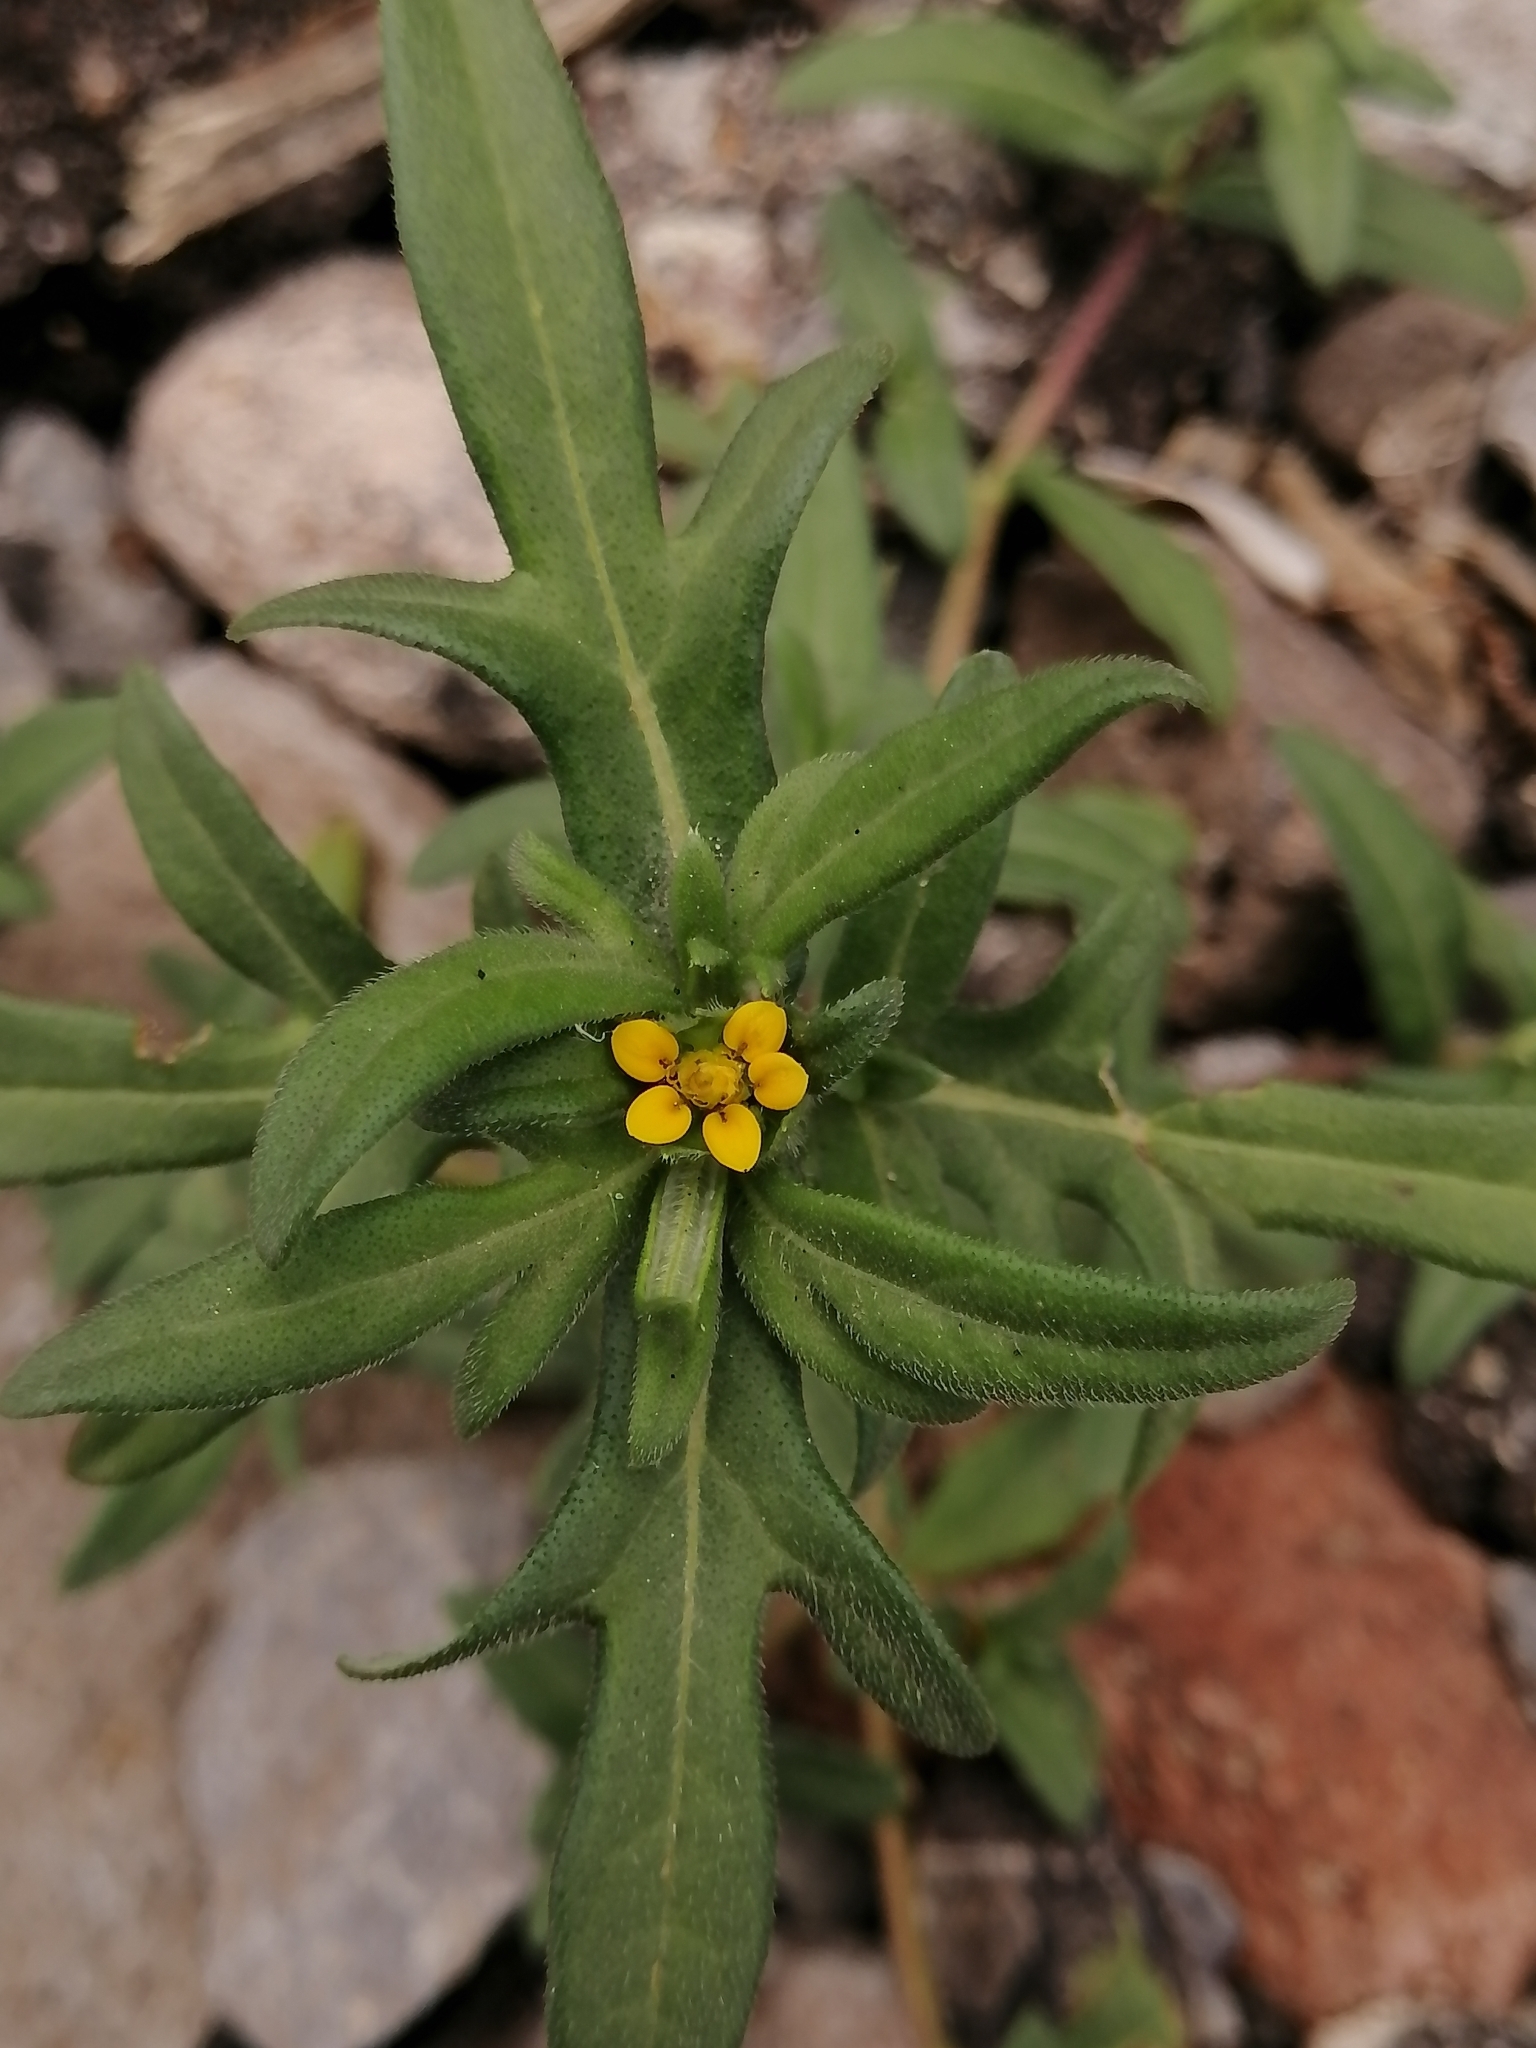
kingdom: Plantae
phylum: Tracheophyta
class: Magnoliopsida
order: Asterales
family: Asteraceae
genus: Melampodium
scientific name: Melampodium sericeum
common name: Rough blackfoot
